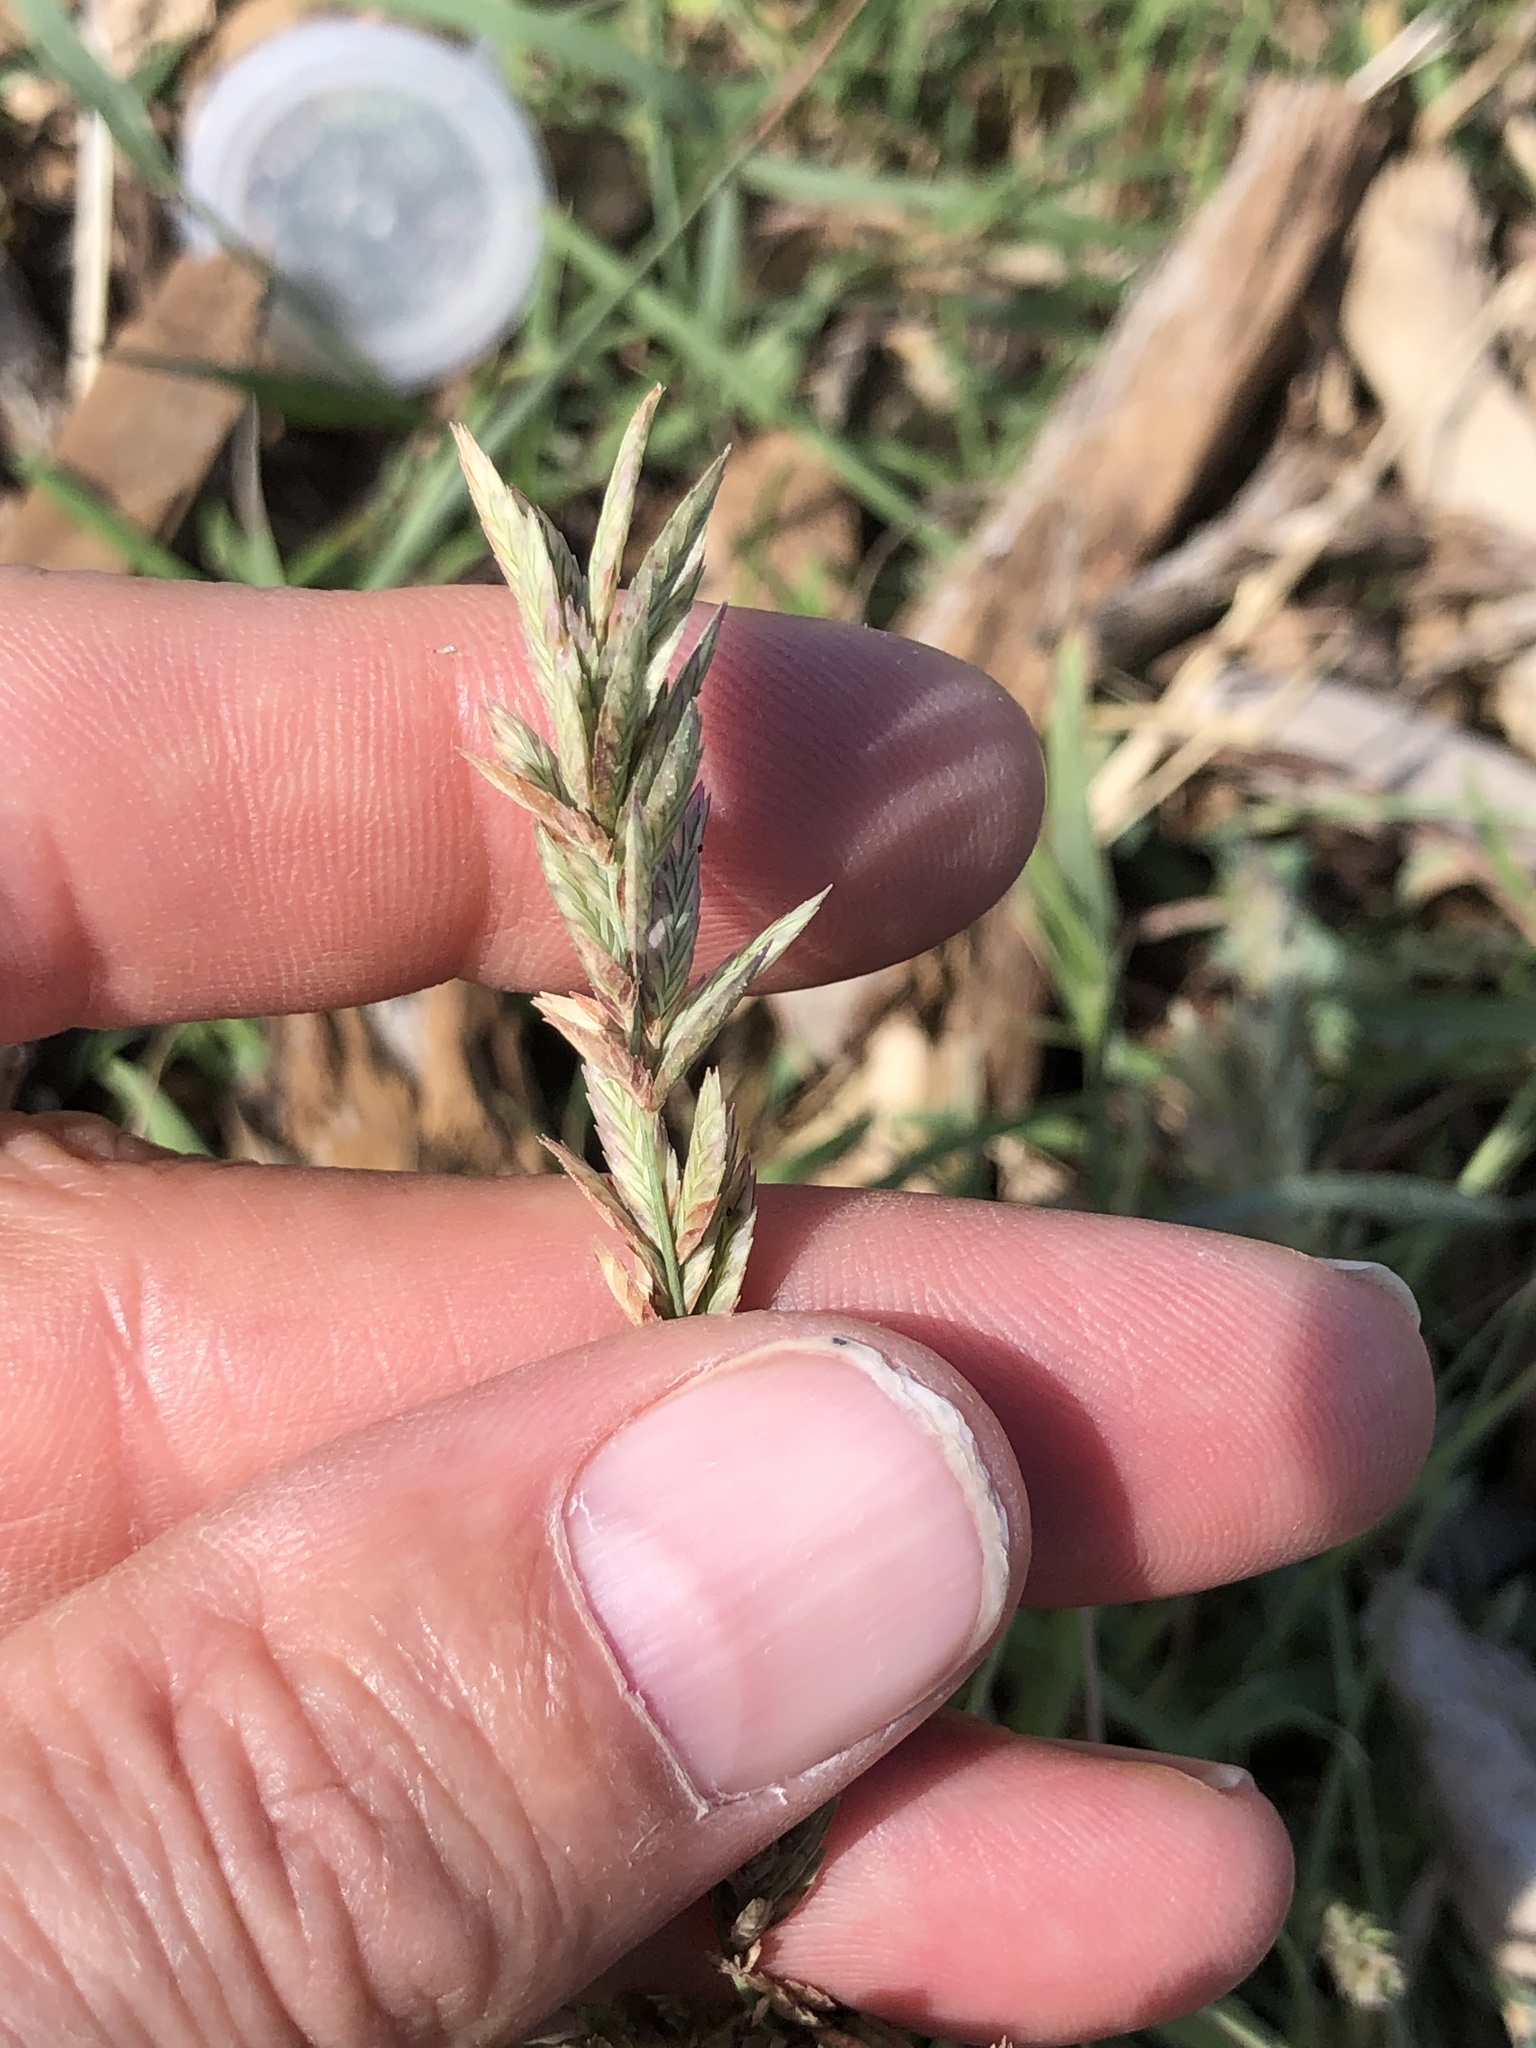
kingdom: Plantae
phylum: Tracheophyta
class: Liliopsida
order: Poales
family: Poaceae
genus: Eragrostis
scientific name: Eragrostis secundiflora
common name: Red love grass
